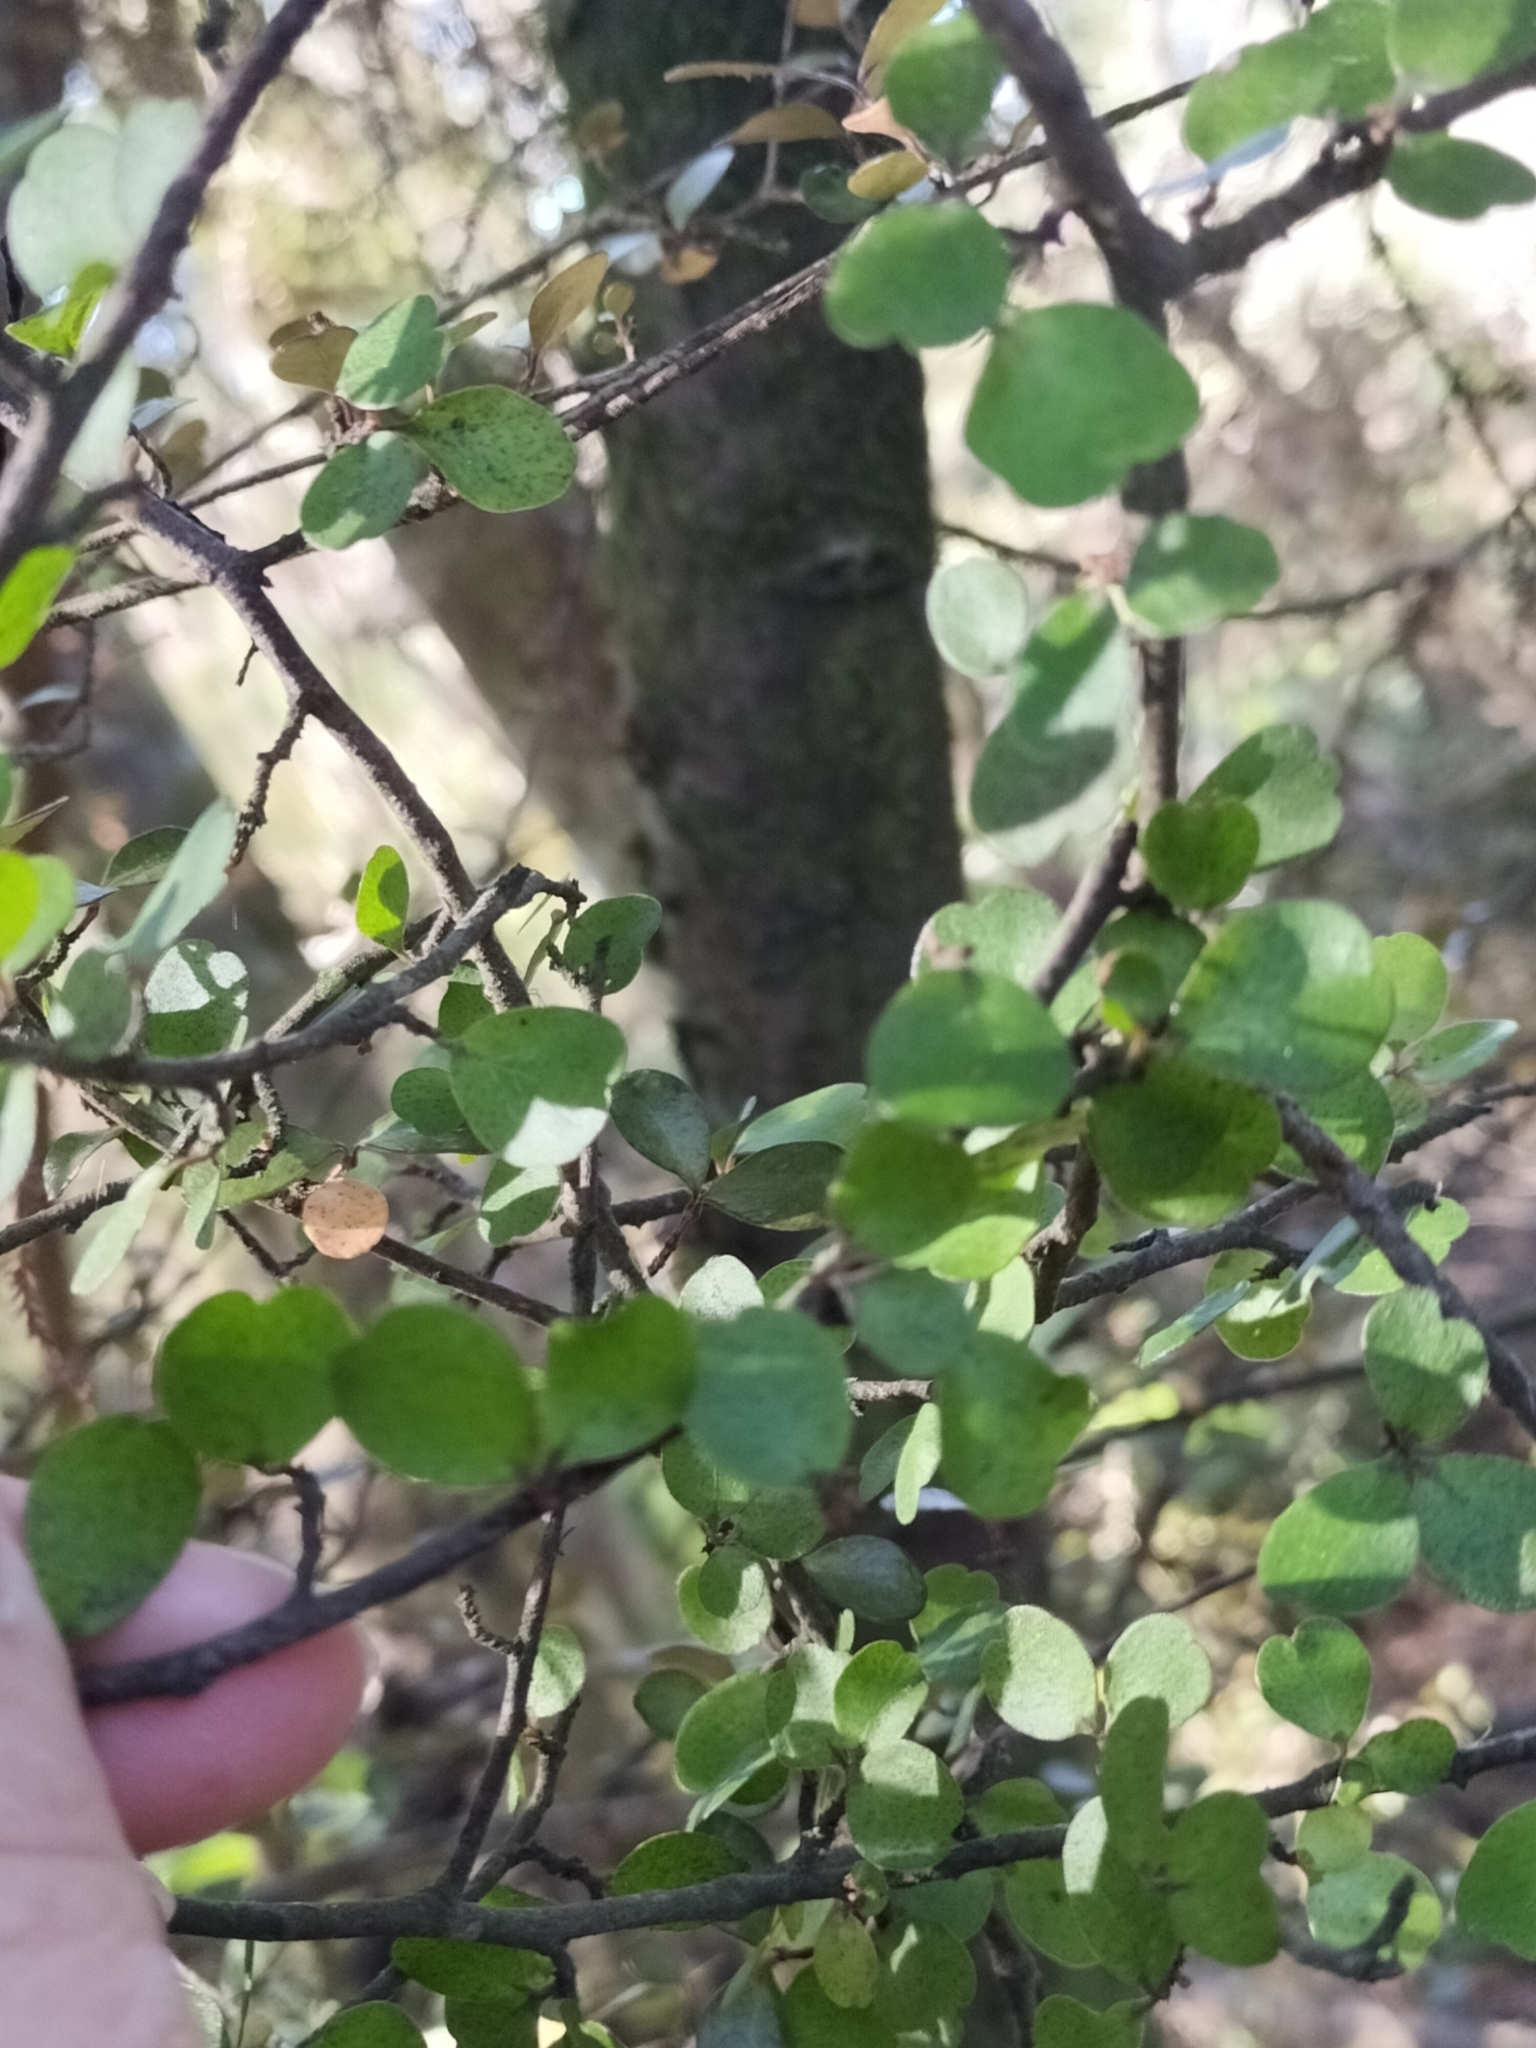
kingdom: Plantae
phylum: Tracheophyta
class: Magnoliopsida
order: Ericales
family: Primulaceae
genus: Myrsine
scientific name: Myrsine divaricata
